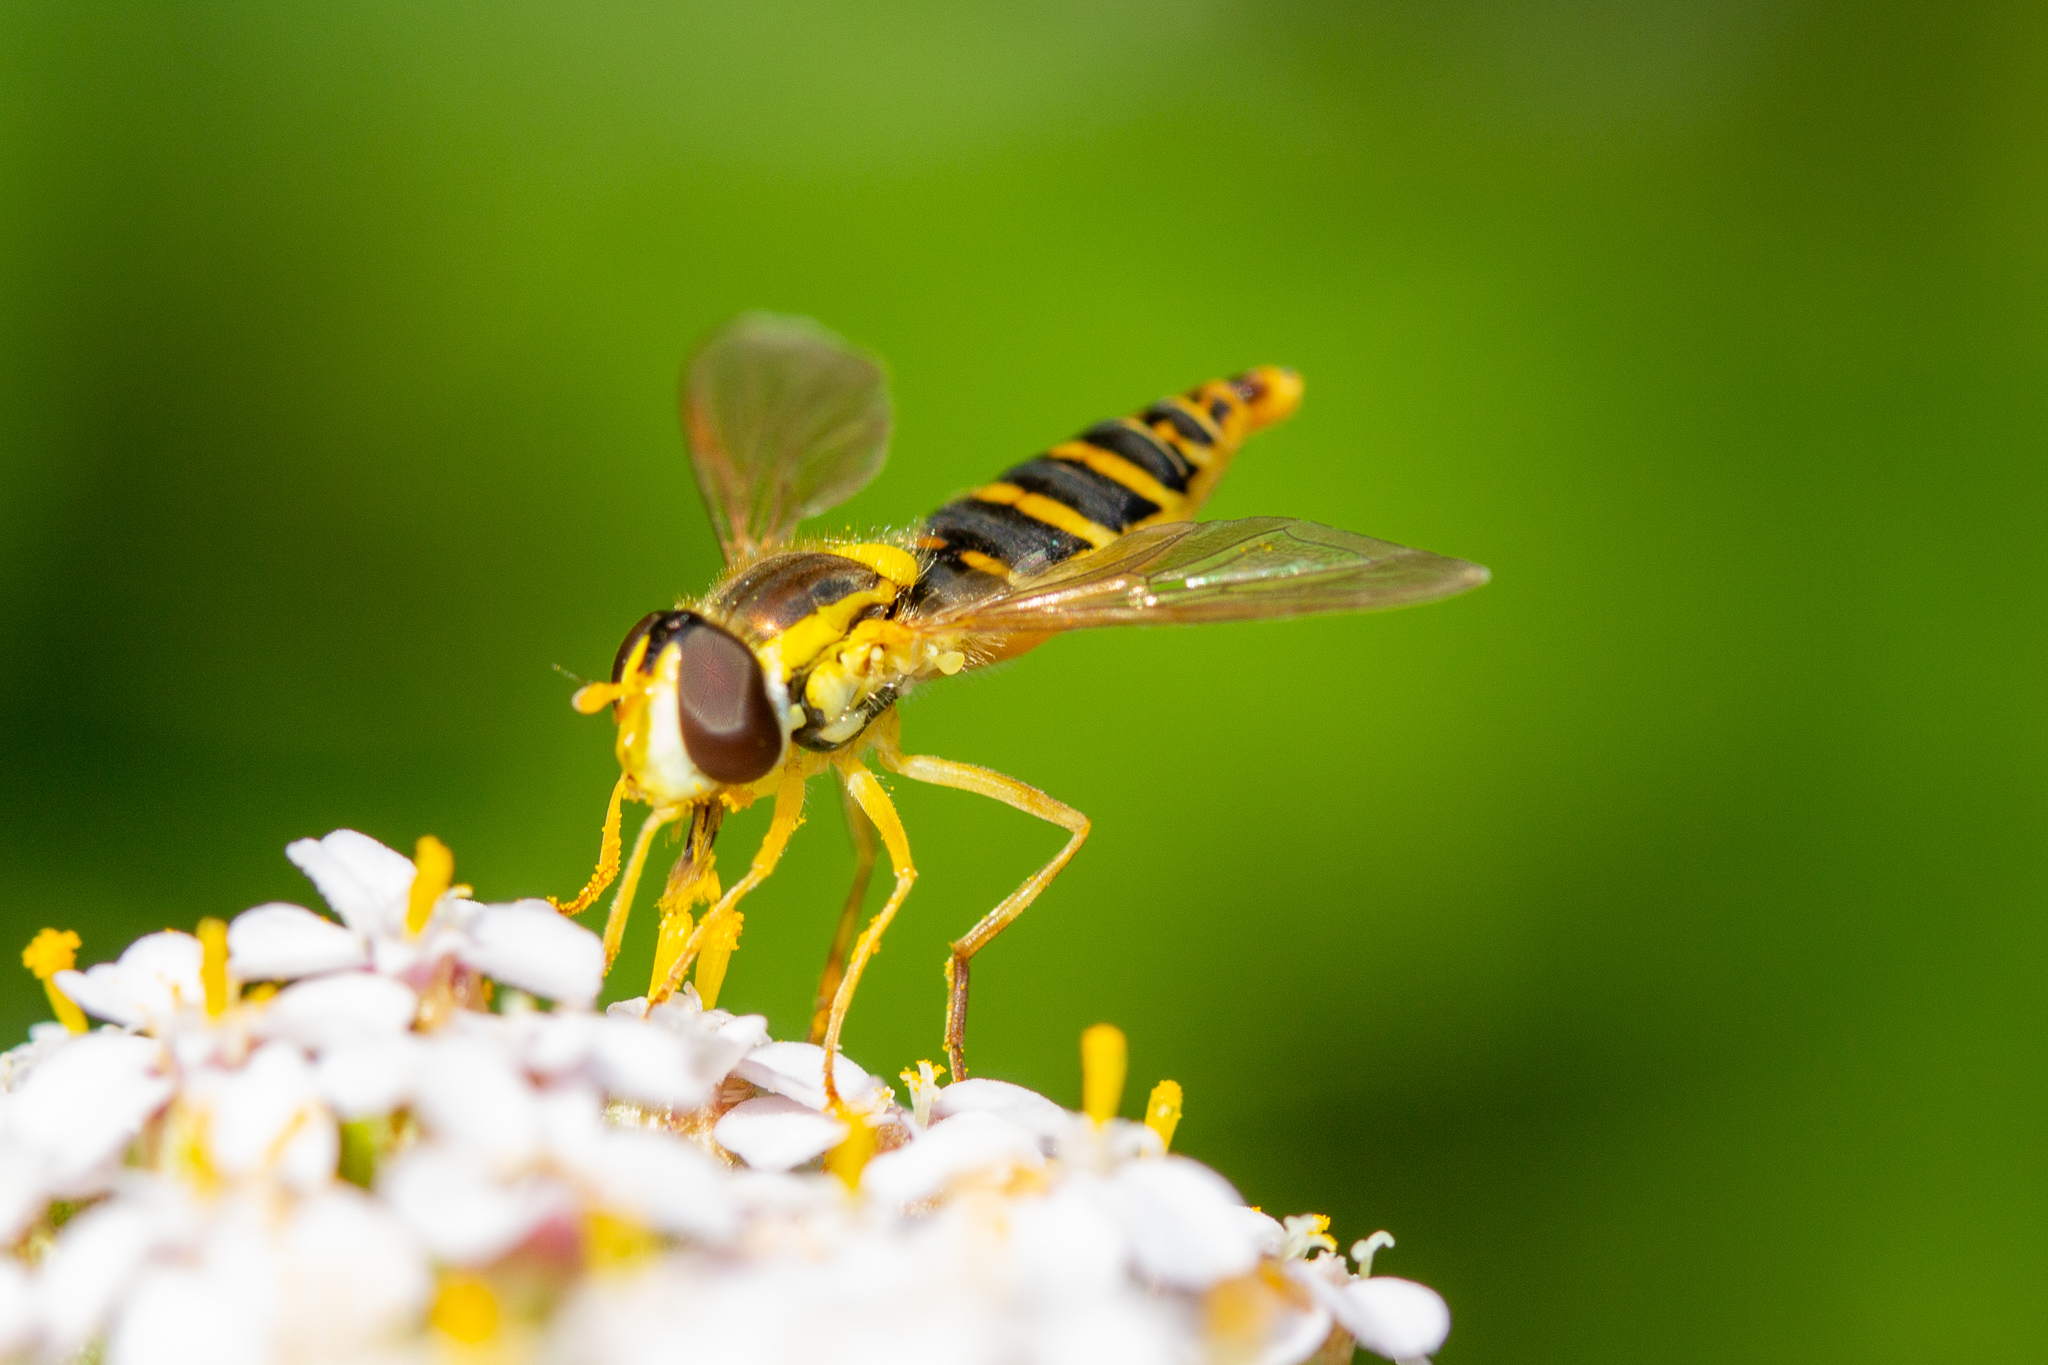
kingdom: Animalia
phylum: Arthropoda
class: Insecta
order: Diptera
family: Syrphidae
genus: Sphaerophoria
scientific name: Sphaerophoria
